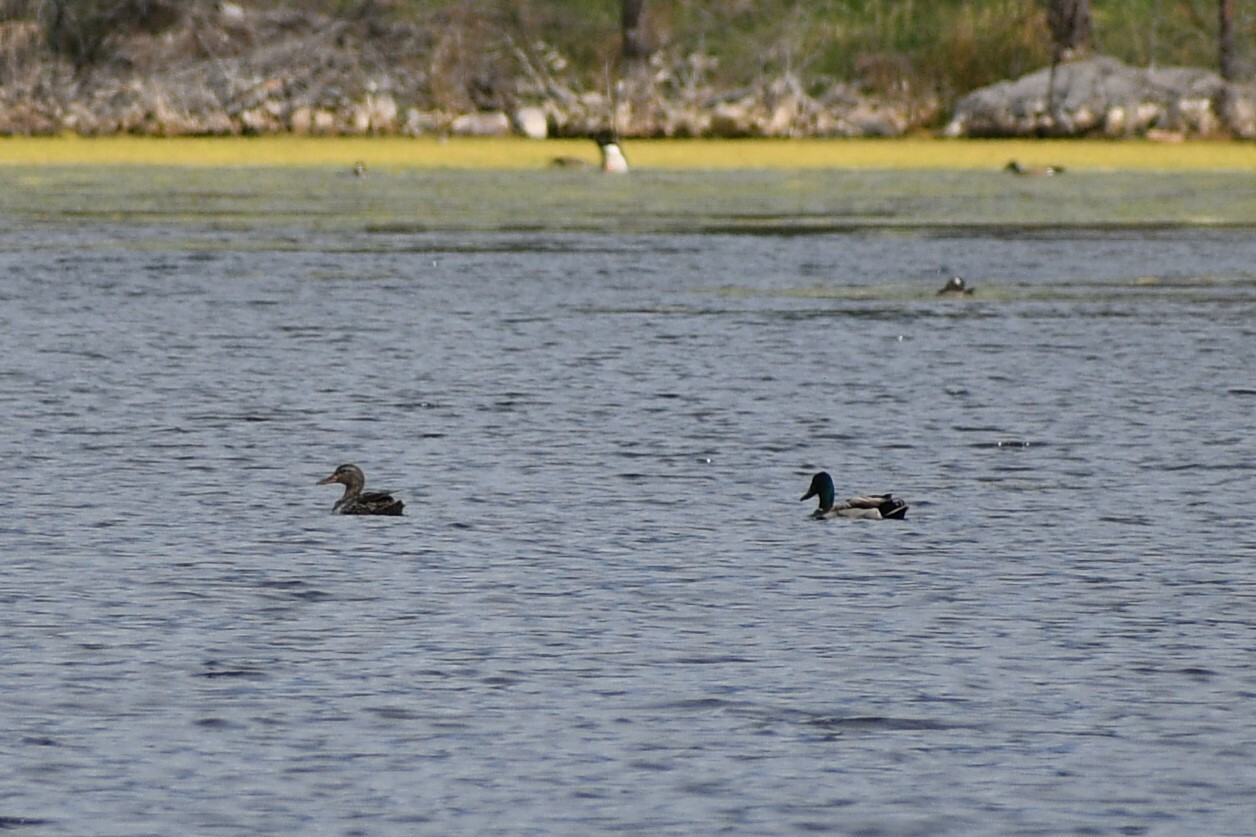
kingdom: Animalia
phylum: Chordata
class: Aves
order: Anseriformes
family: Anatidae
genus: Anas
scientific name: Anas platyrhynchos
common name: Mallard
